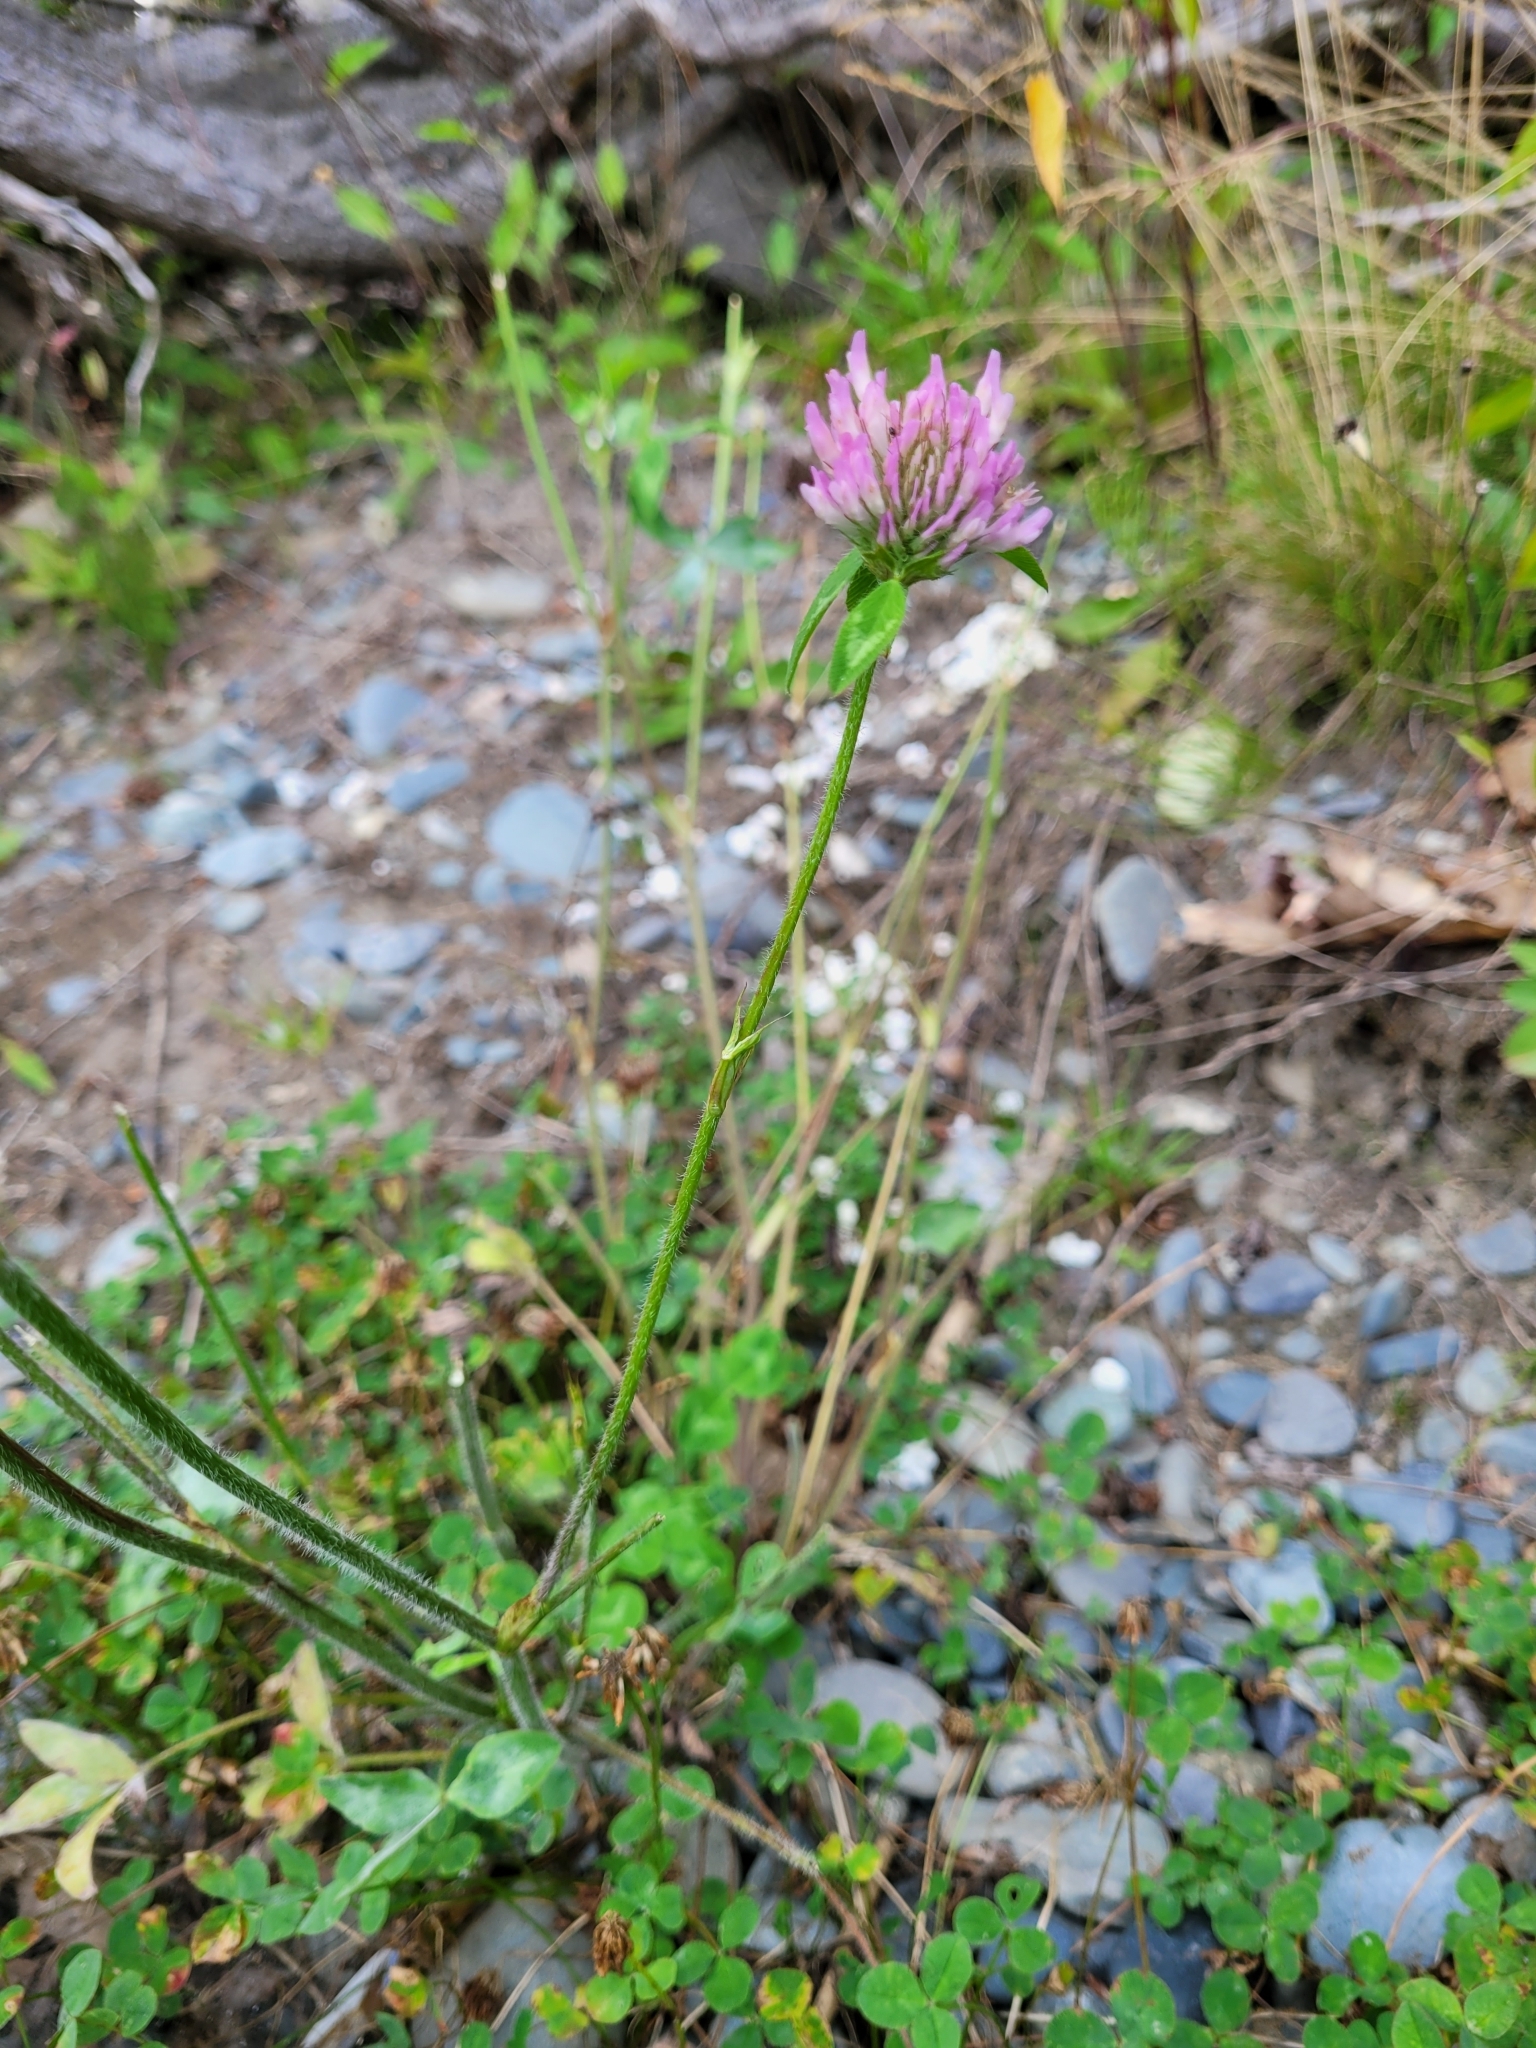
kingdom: Plantae
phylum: Tracheophyta
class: Magnoliopsida
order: Fabales
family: Fabaceae
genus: Trifolium
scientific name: Trifolium pratense
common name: Red clover
